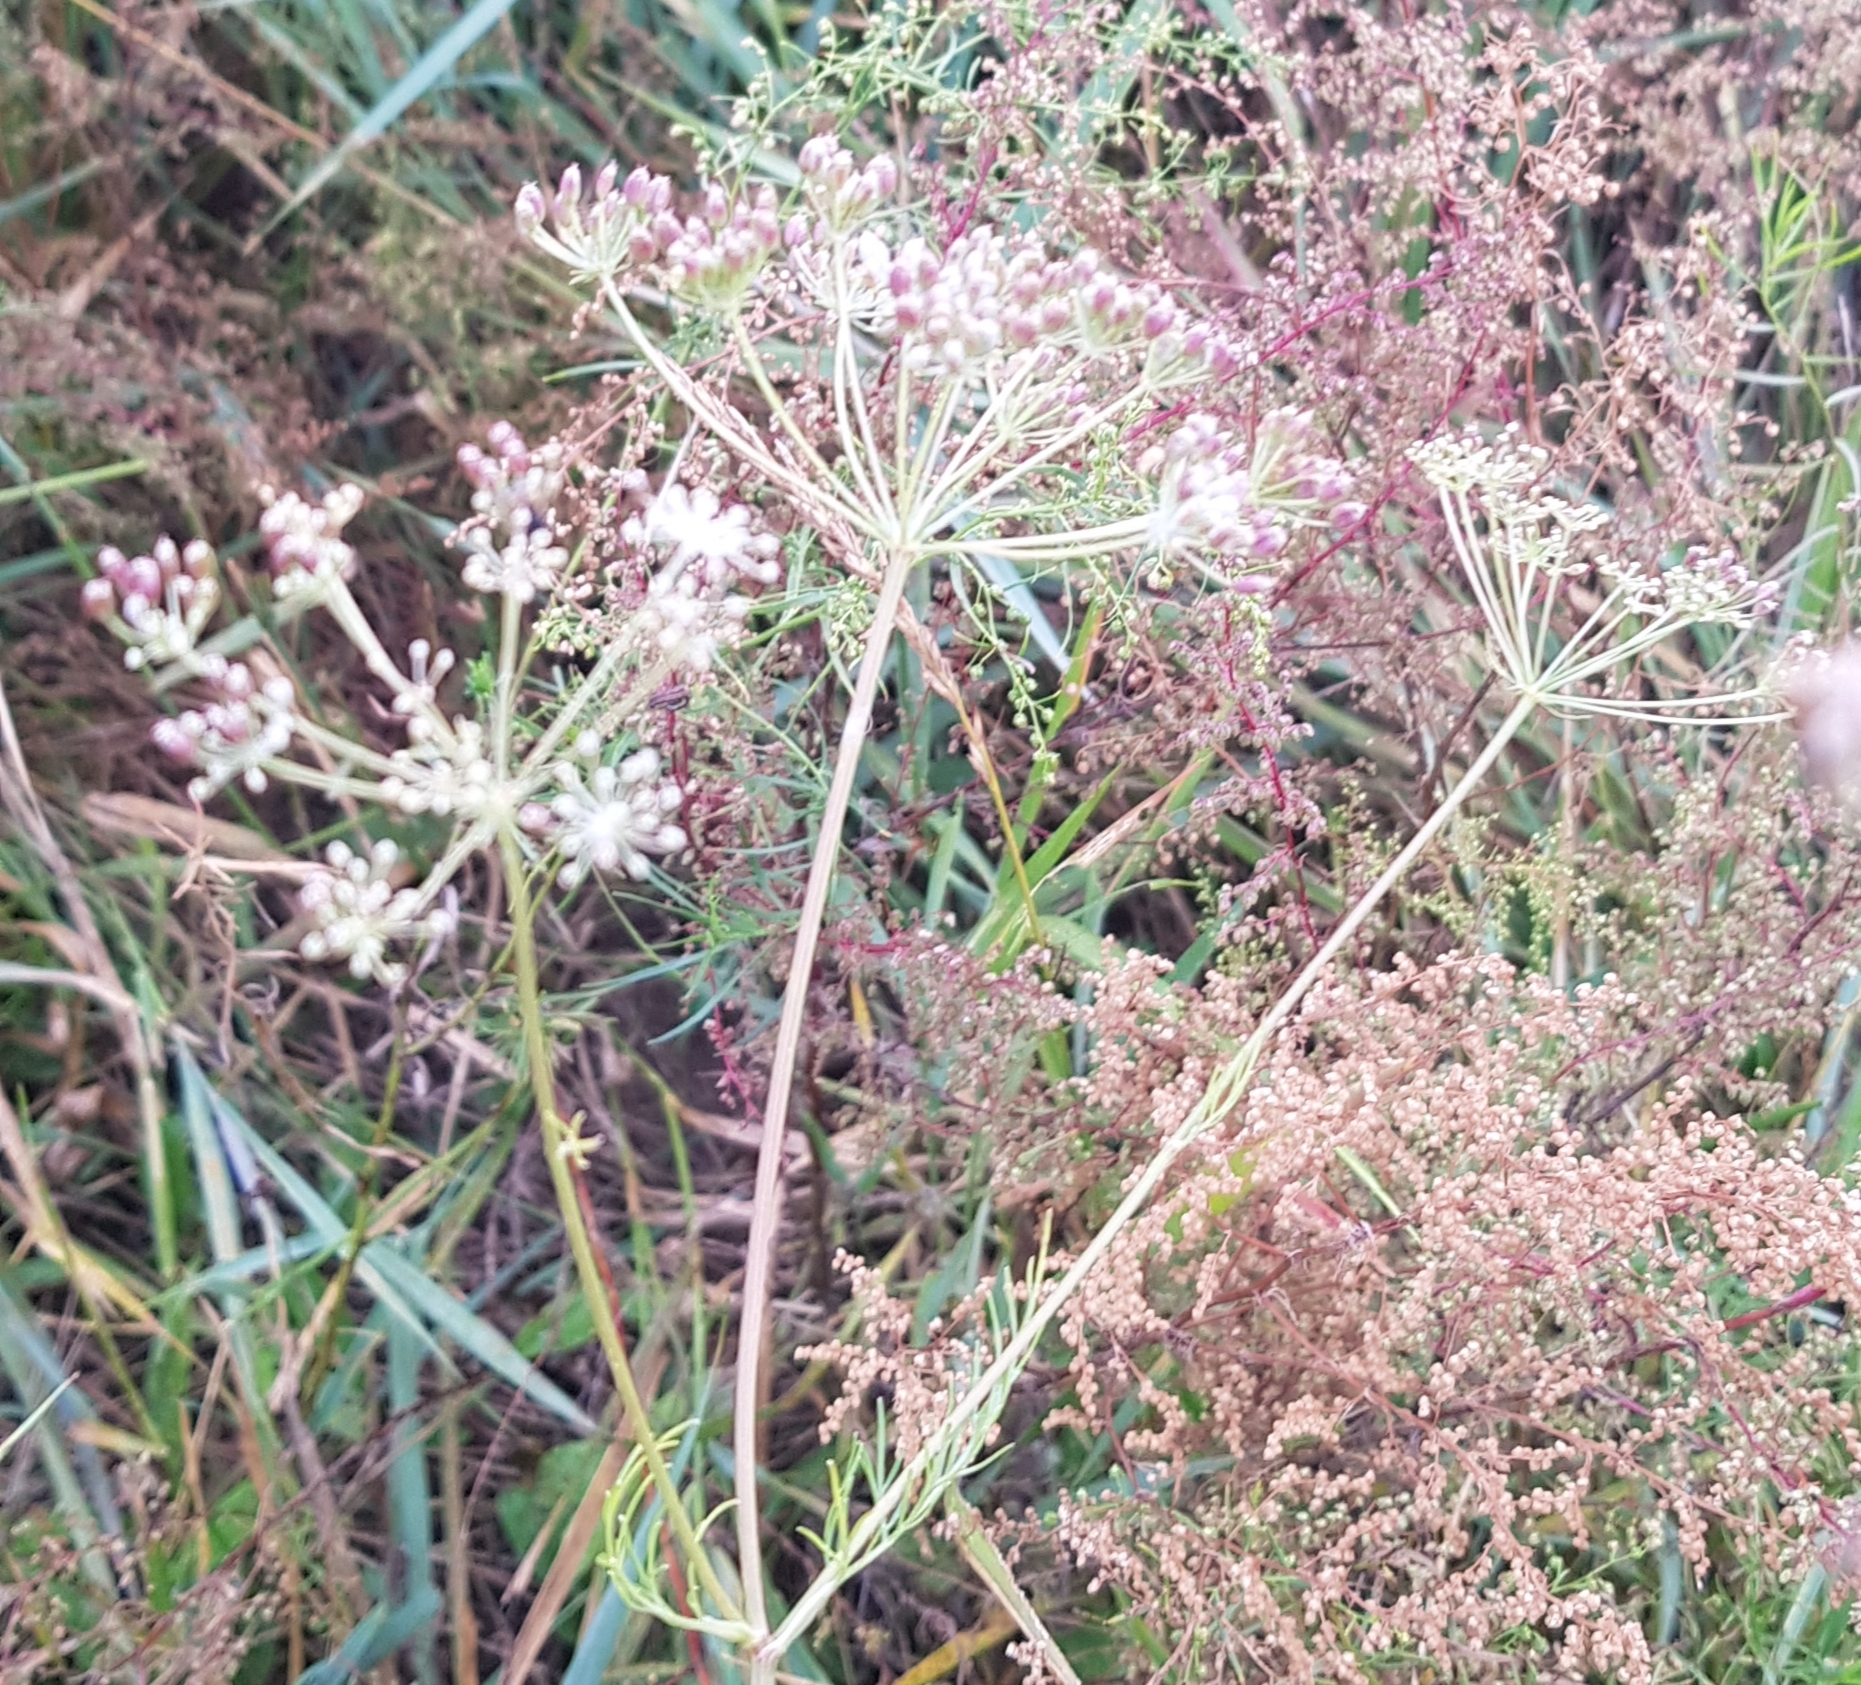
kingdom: Plantae
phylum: Tracheophyta
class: Magnoliopsida
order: Apiales
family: Apiaceae
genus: Cenolophium
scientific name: Cenolophium fischeri
